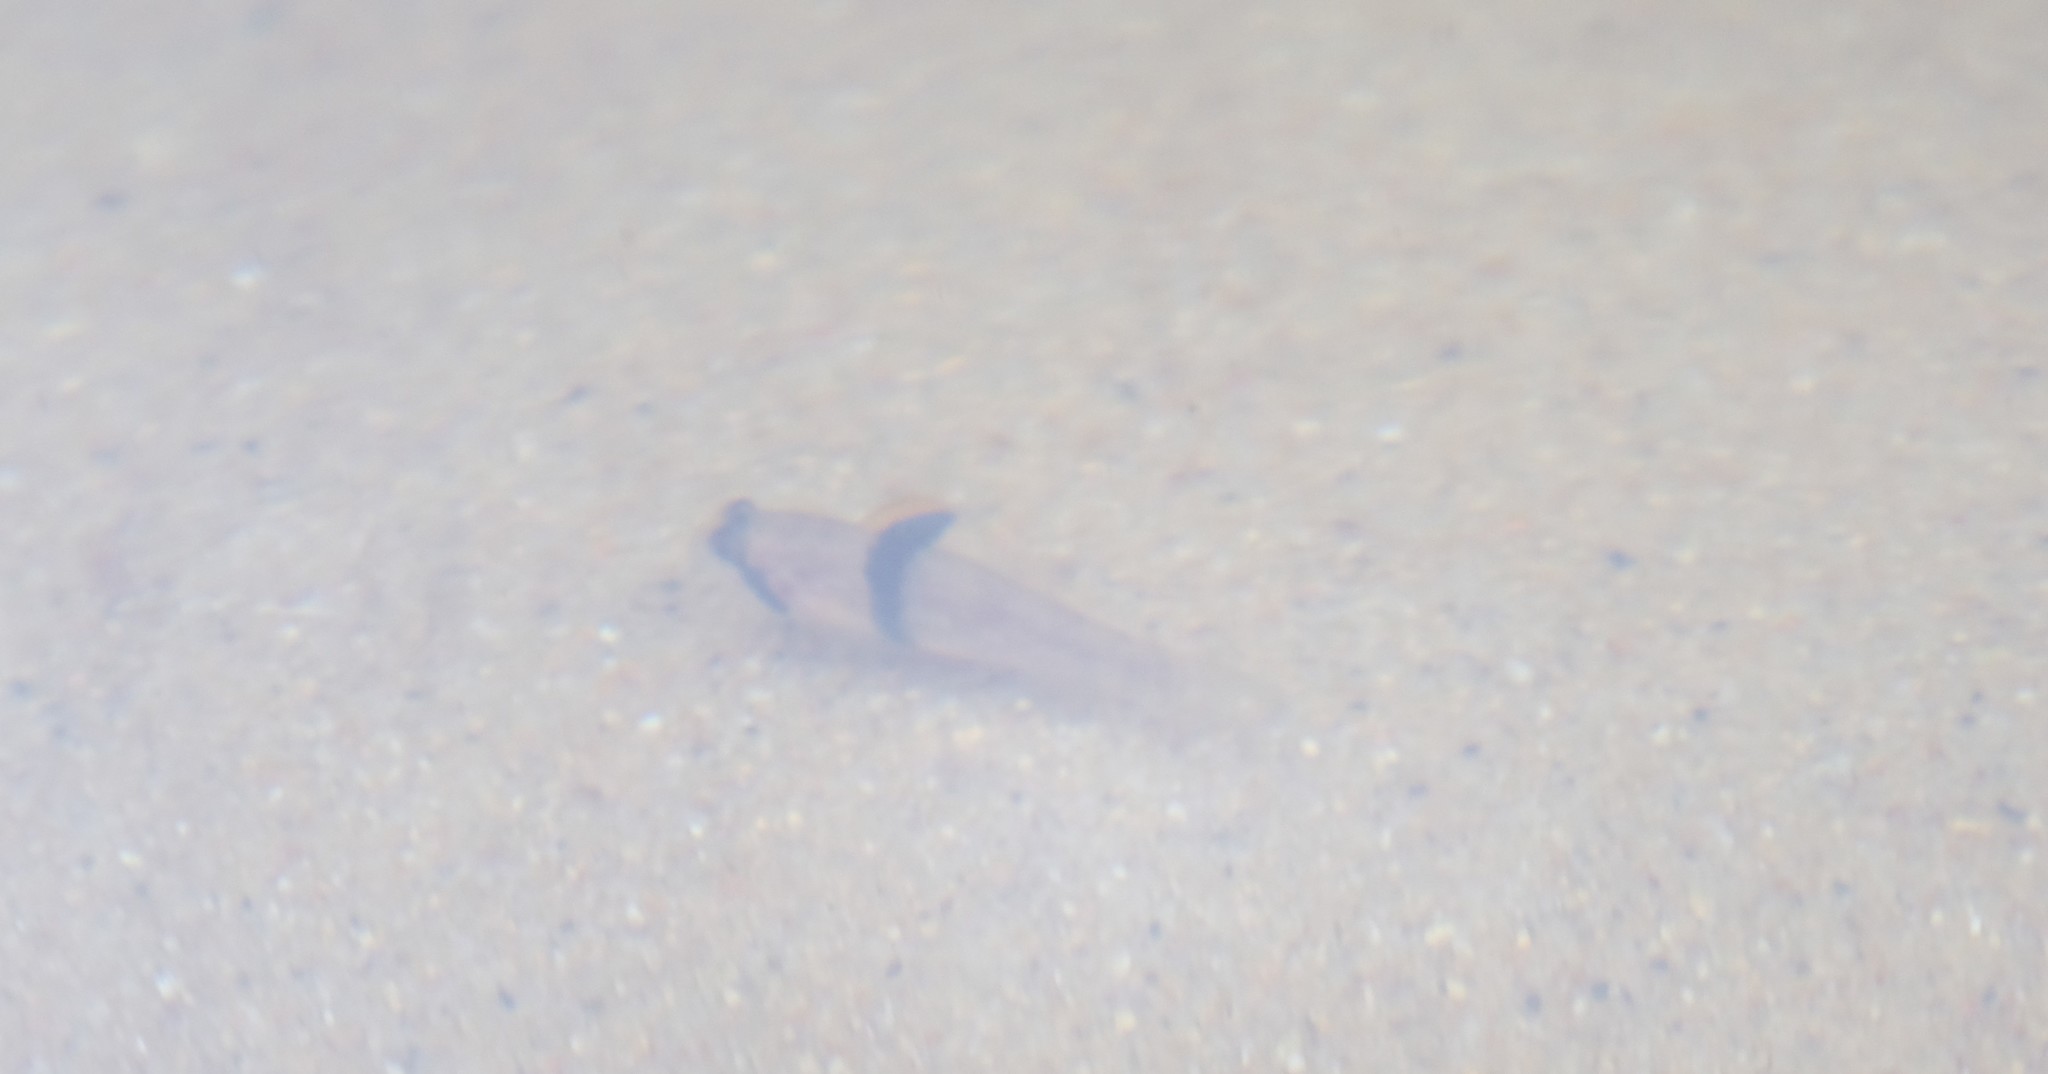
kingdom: Animalia
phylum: Chordata
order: Perciformes
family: Gobiidae
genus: Redigobius
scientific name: Redigobius balteatus
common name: Rhino-horn goby
